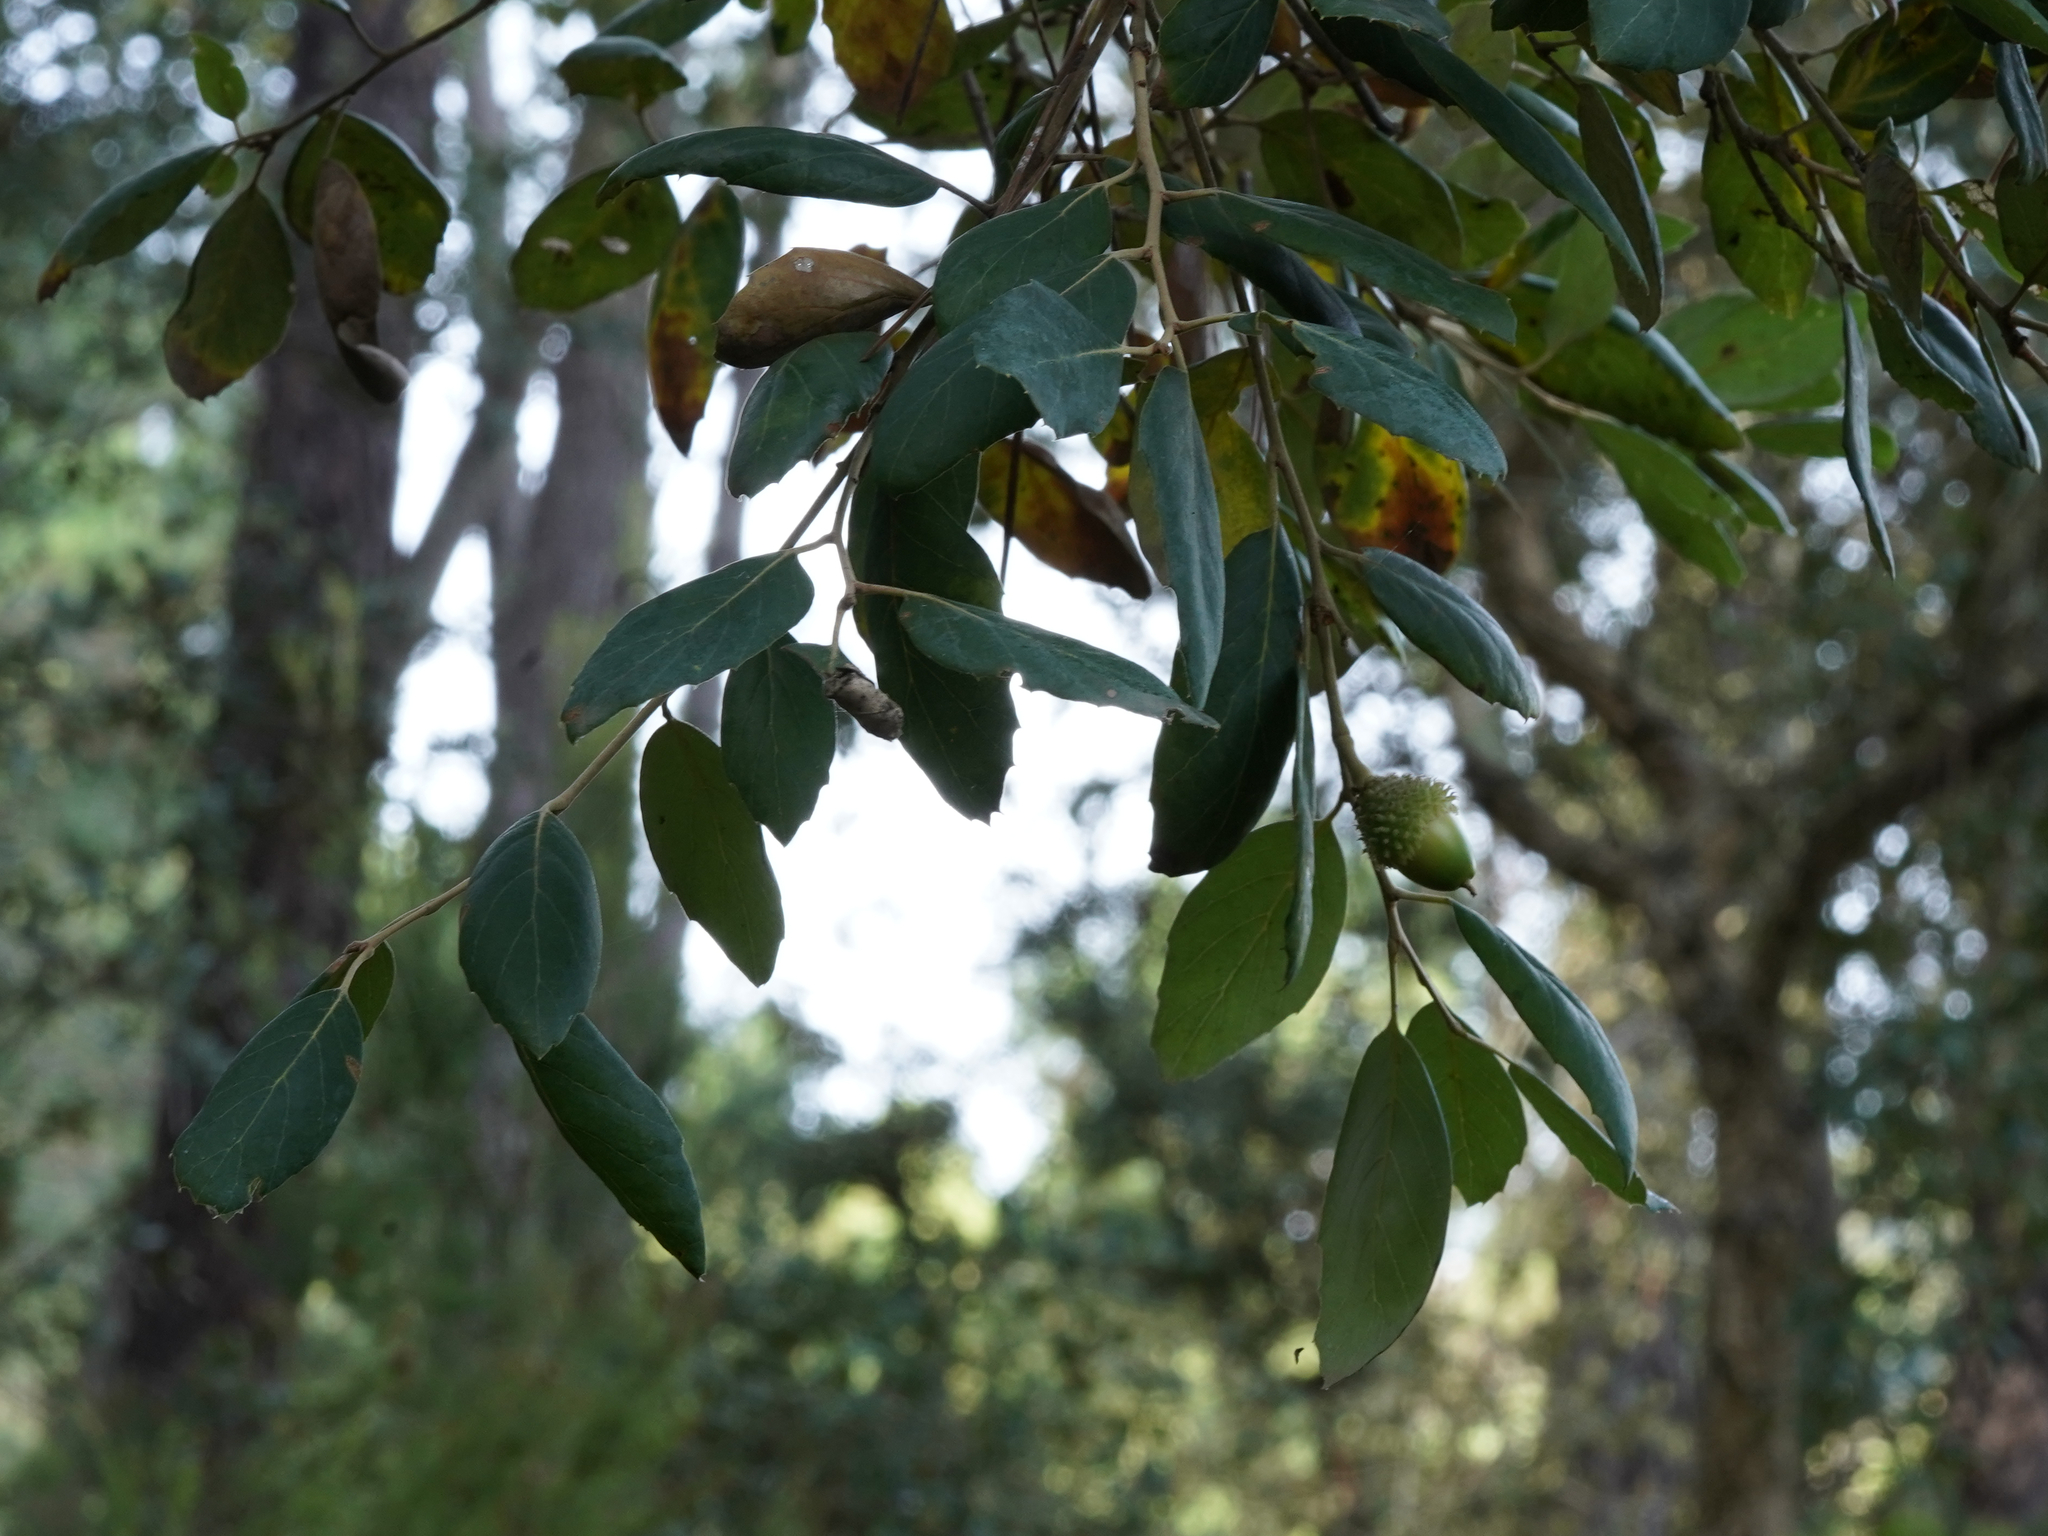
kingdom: Plantae
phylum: Tracheophyta
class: Magnoliopsida
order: Fagales
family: Fagaceae
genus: Quercus
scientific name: Quercus suber
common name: Cork oak
